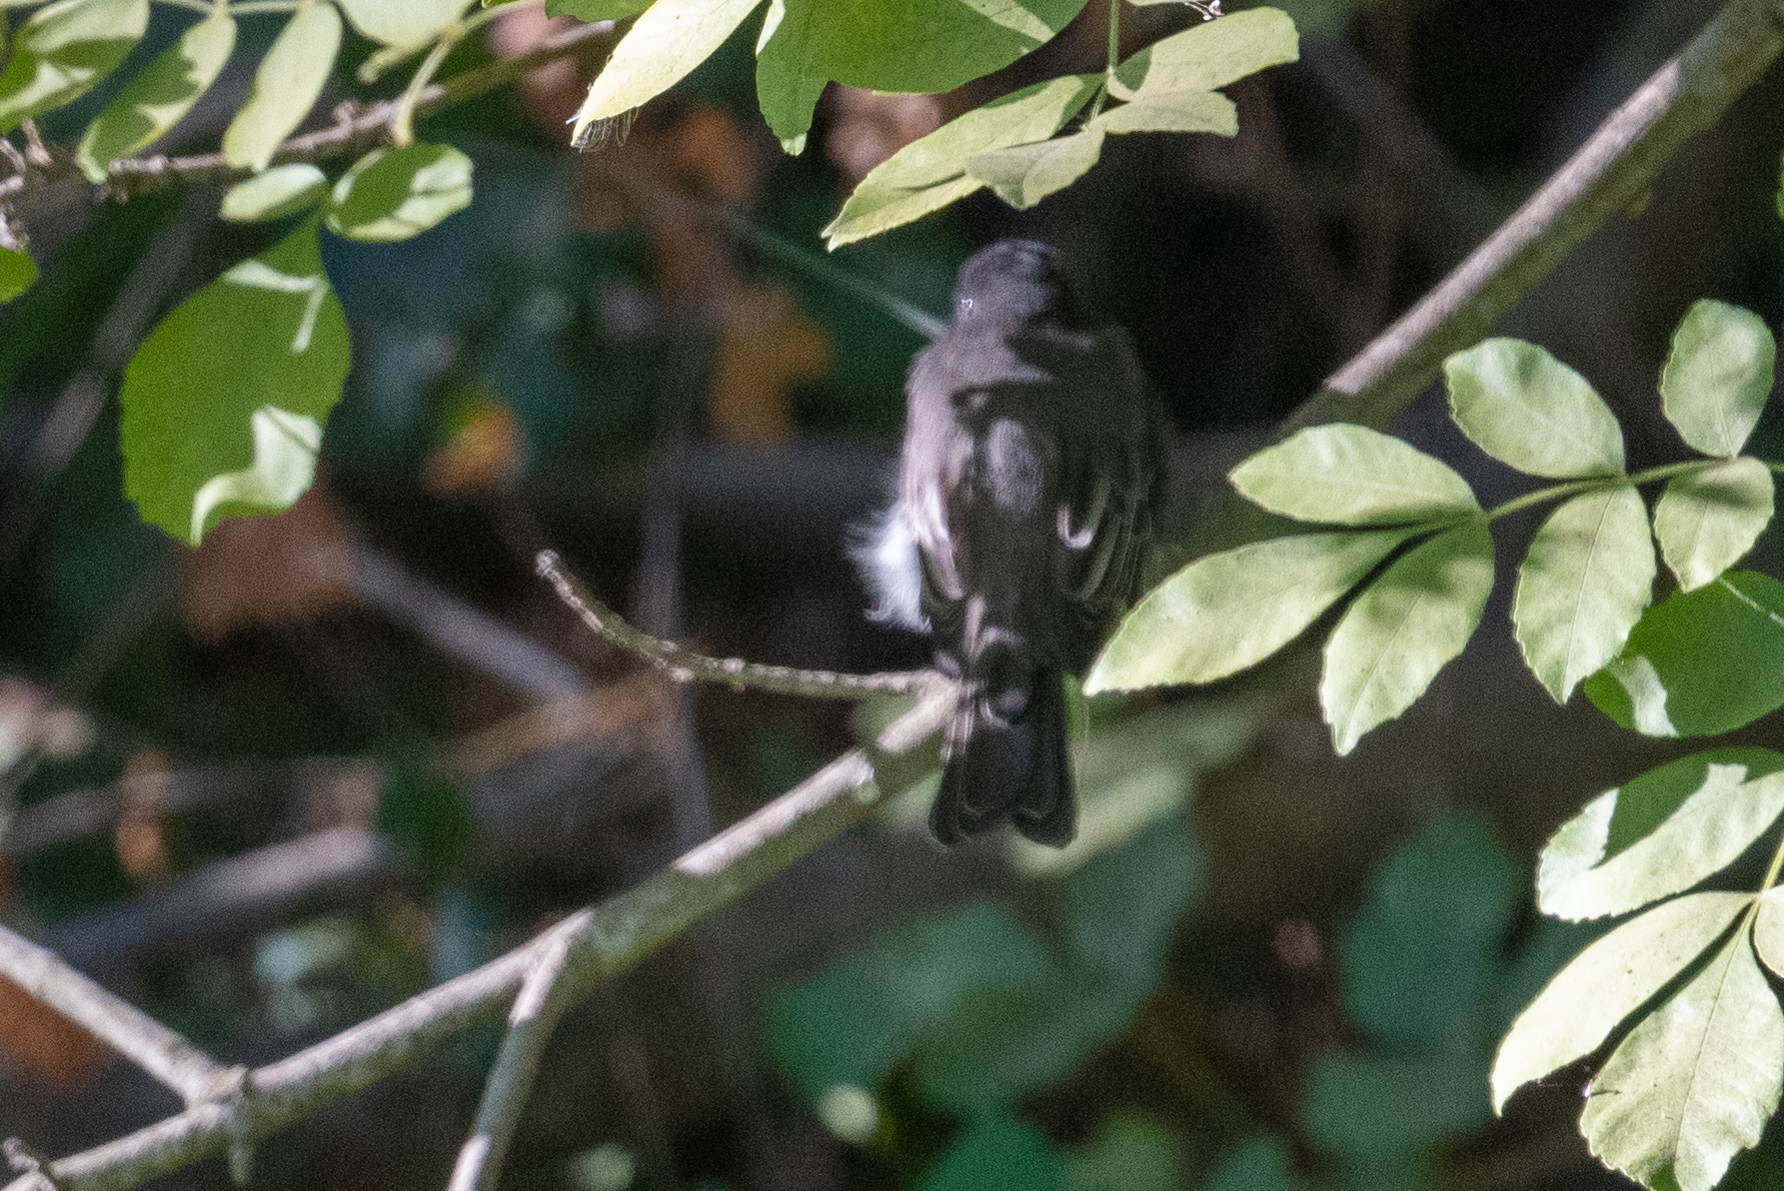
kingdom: Animalia
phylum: Chordata
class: Aves
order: Passeriformes
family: Tyrannidae
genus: Sayornis
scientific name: Sayornis nigricans
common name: Black phoebe
